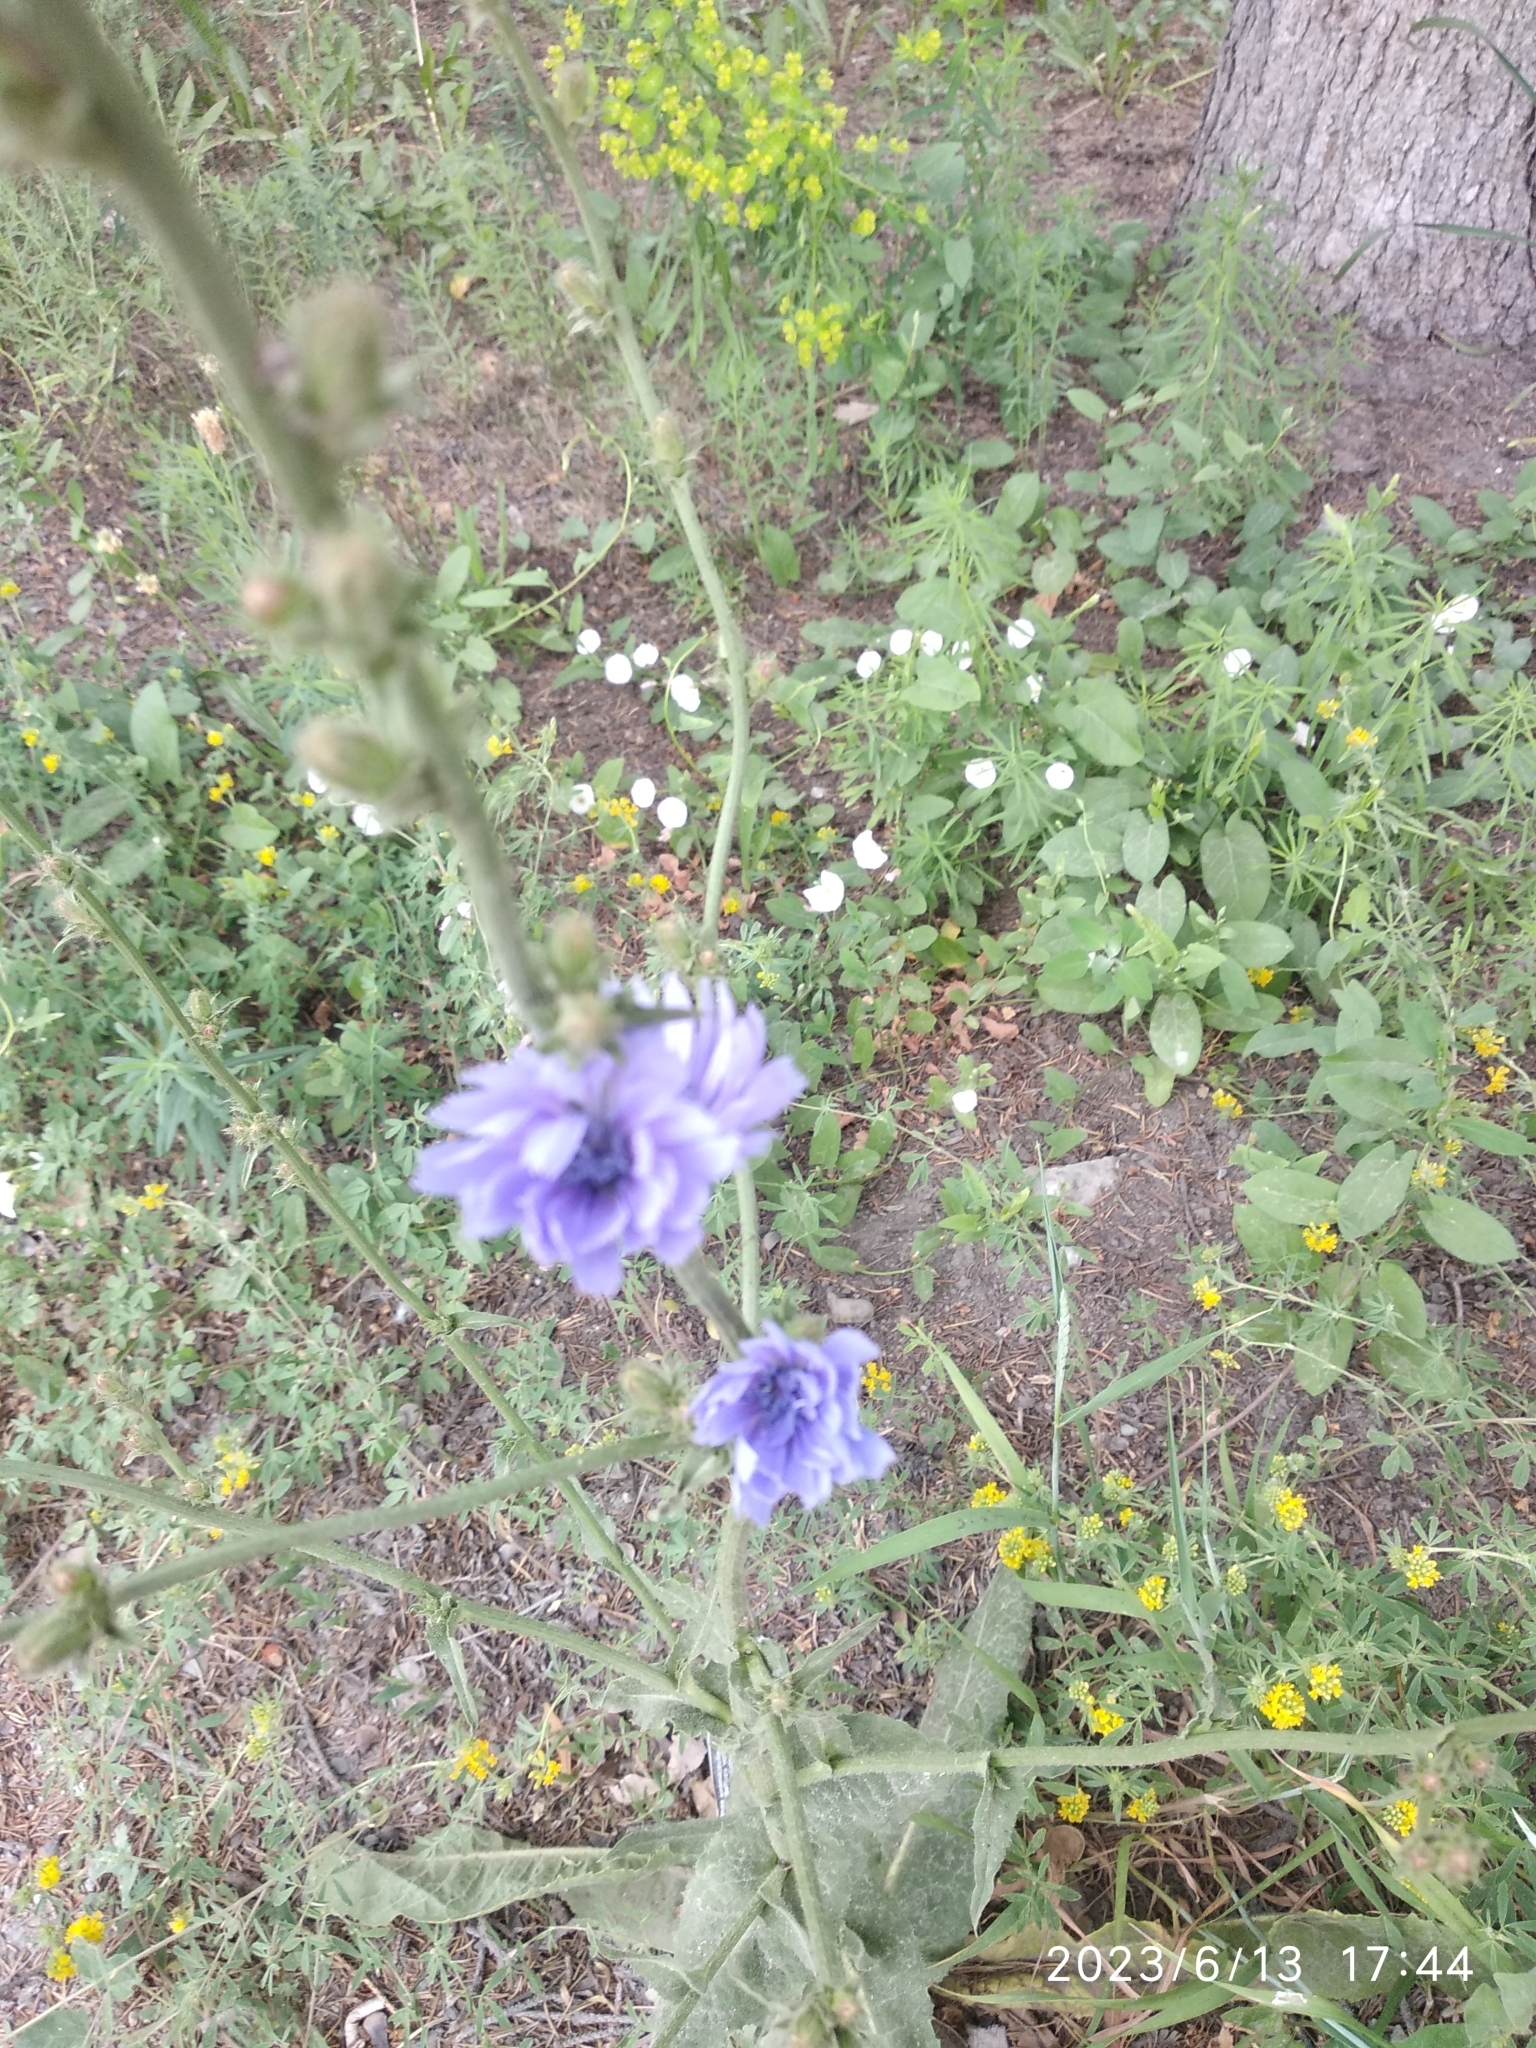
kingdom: Plantae
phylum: Tracheophyta
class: Magnoliopsida
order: Asterales
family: Asteraceae
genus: Cichorium
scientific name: Cichorium intybus
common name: Chicory
